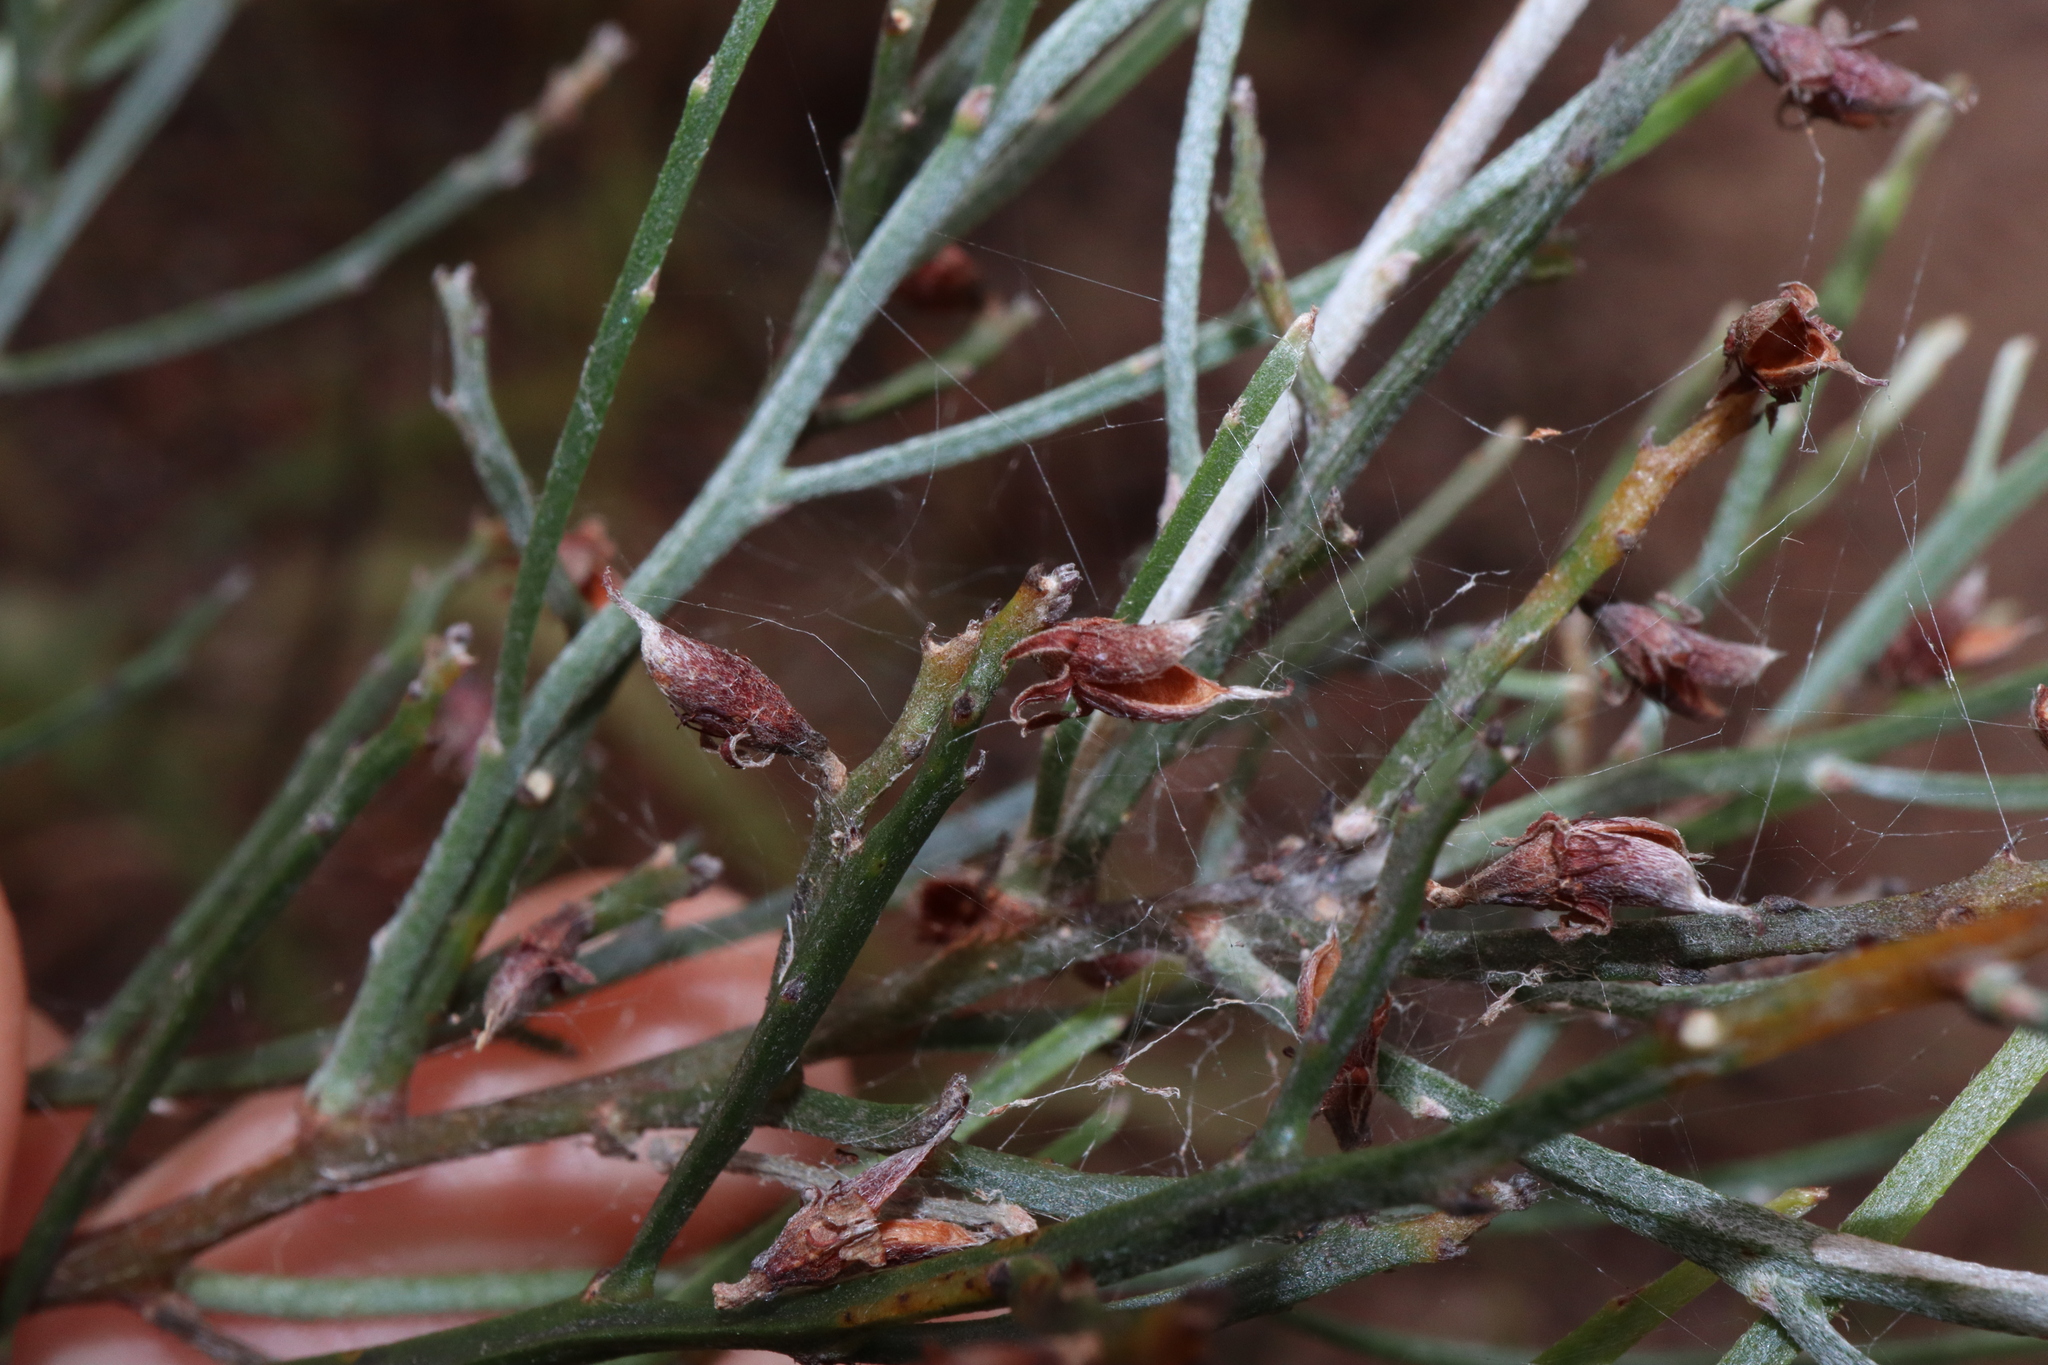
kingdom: Plantae
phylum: Tracheophyta
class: Magnoliopsida
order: Fabales
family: Fabaceae
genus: Jacksonia
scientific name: Jacksonia thesioides
